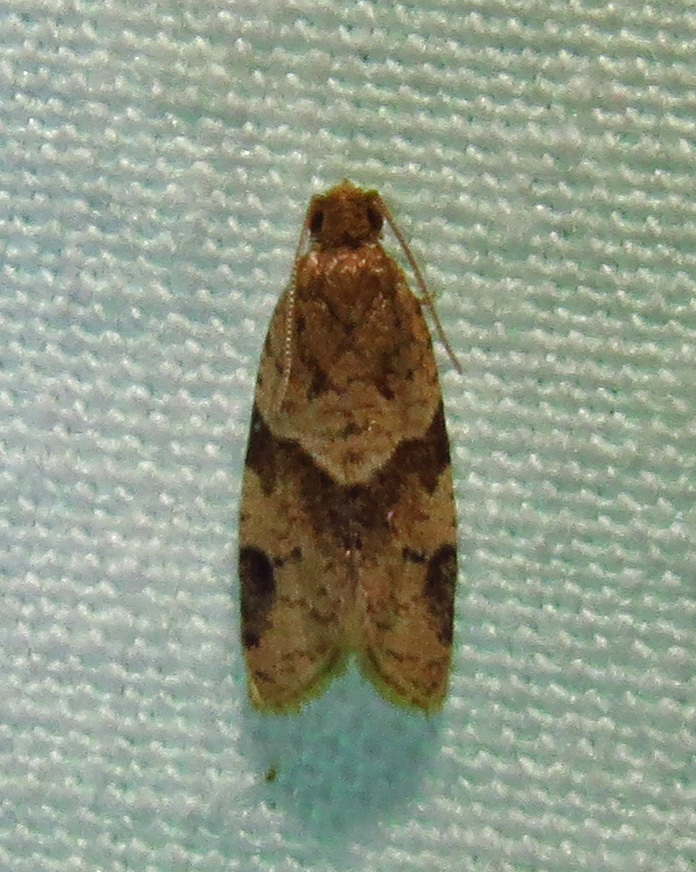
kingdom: Animalia
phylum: Arthropoda
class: Insecta
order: Lepidoptera
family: Tortricidae
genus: Clepsis
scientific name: Clepsis peritana
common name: Garden tortrix
